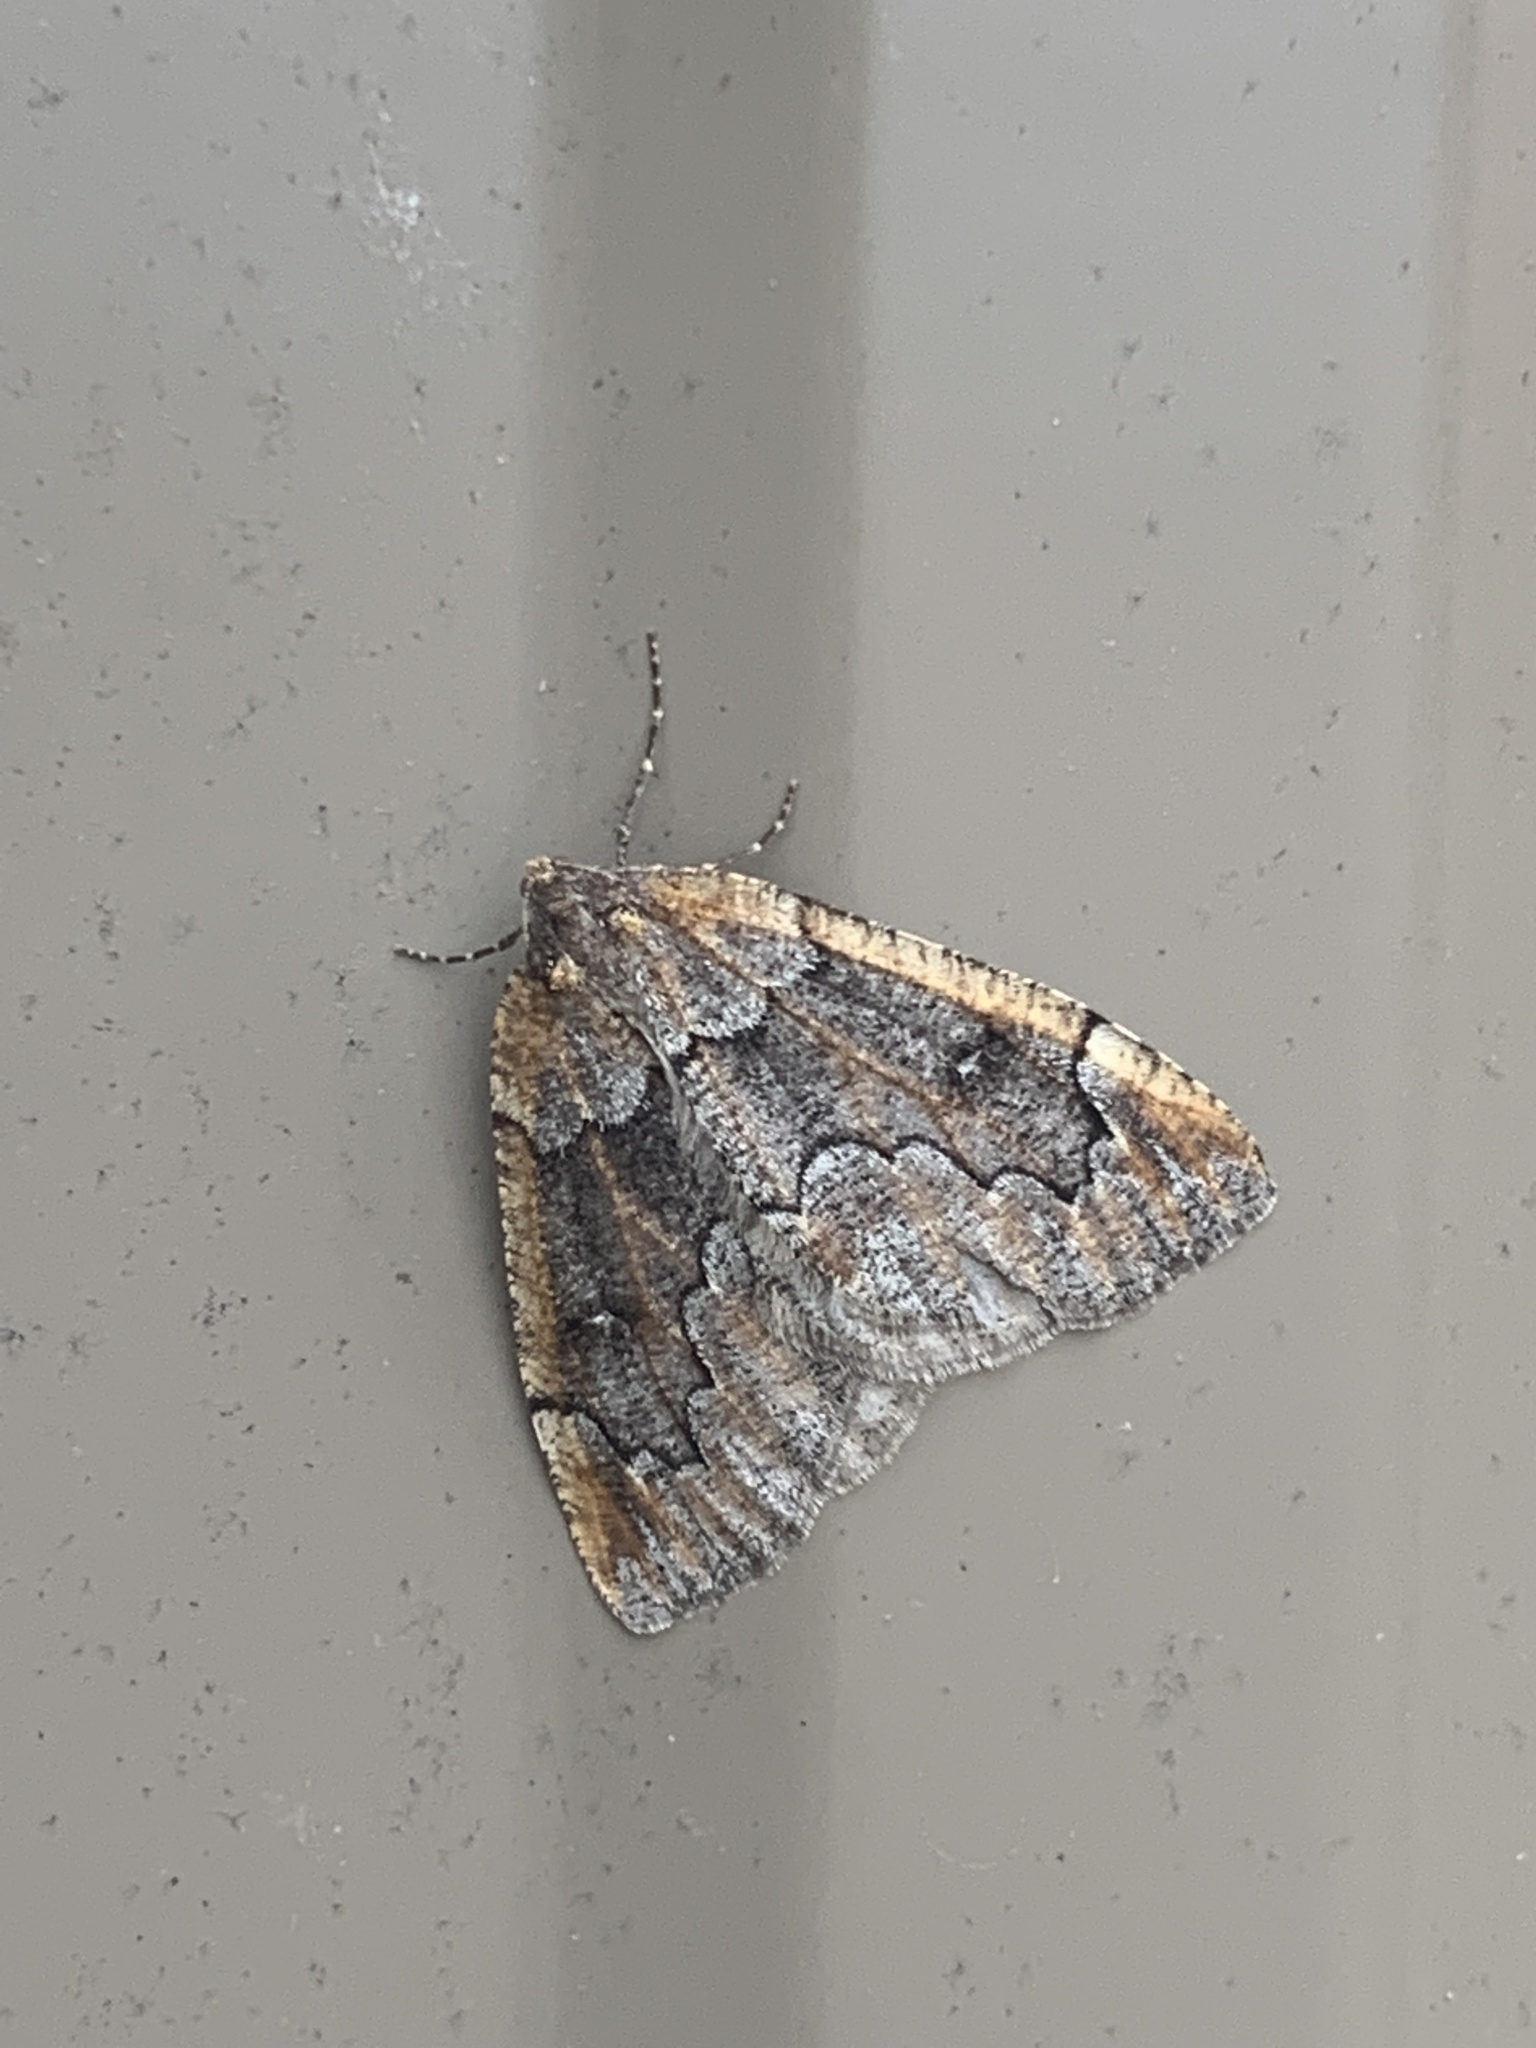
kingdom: Animalia
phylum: Arthropoda
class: Insecta
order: Lepidoptera
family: Geometridae
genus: Spodolepis
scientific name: Spodolepis danbyi
